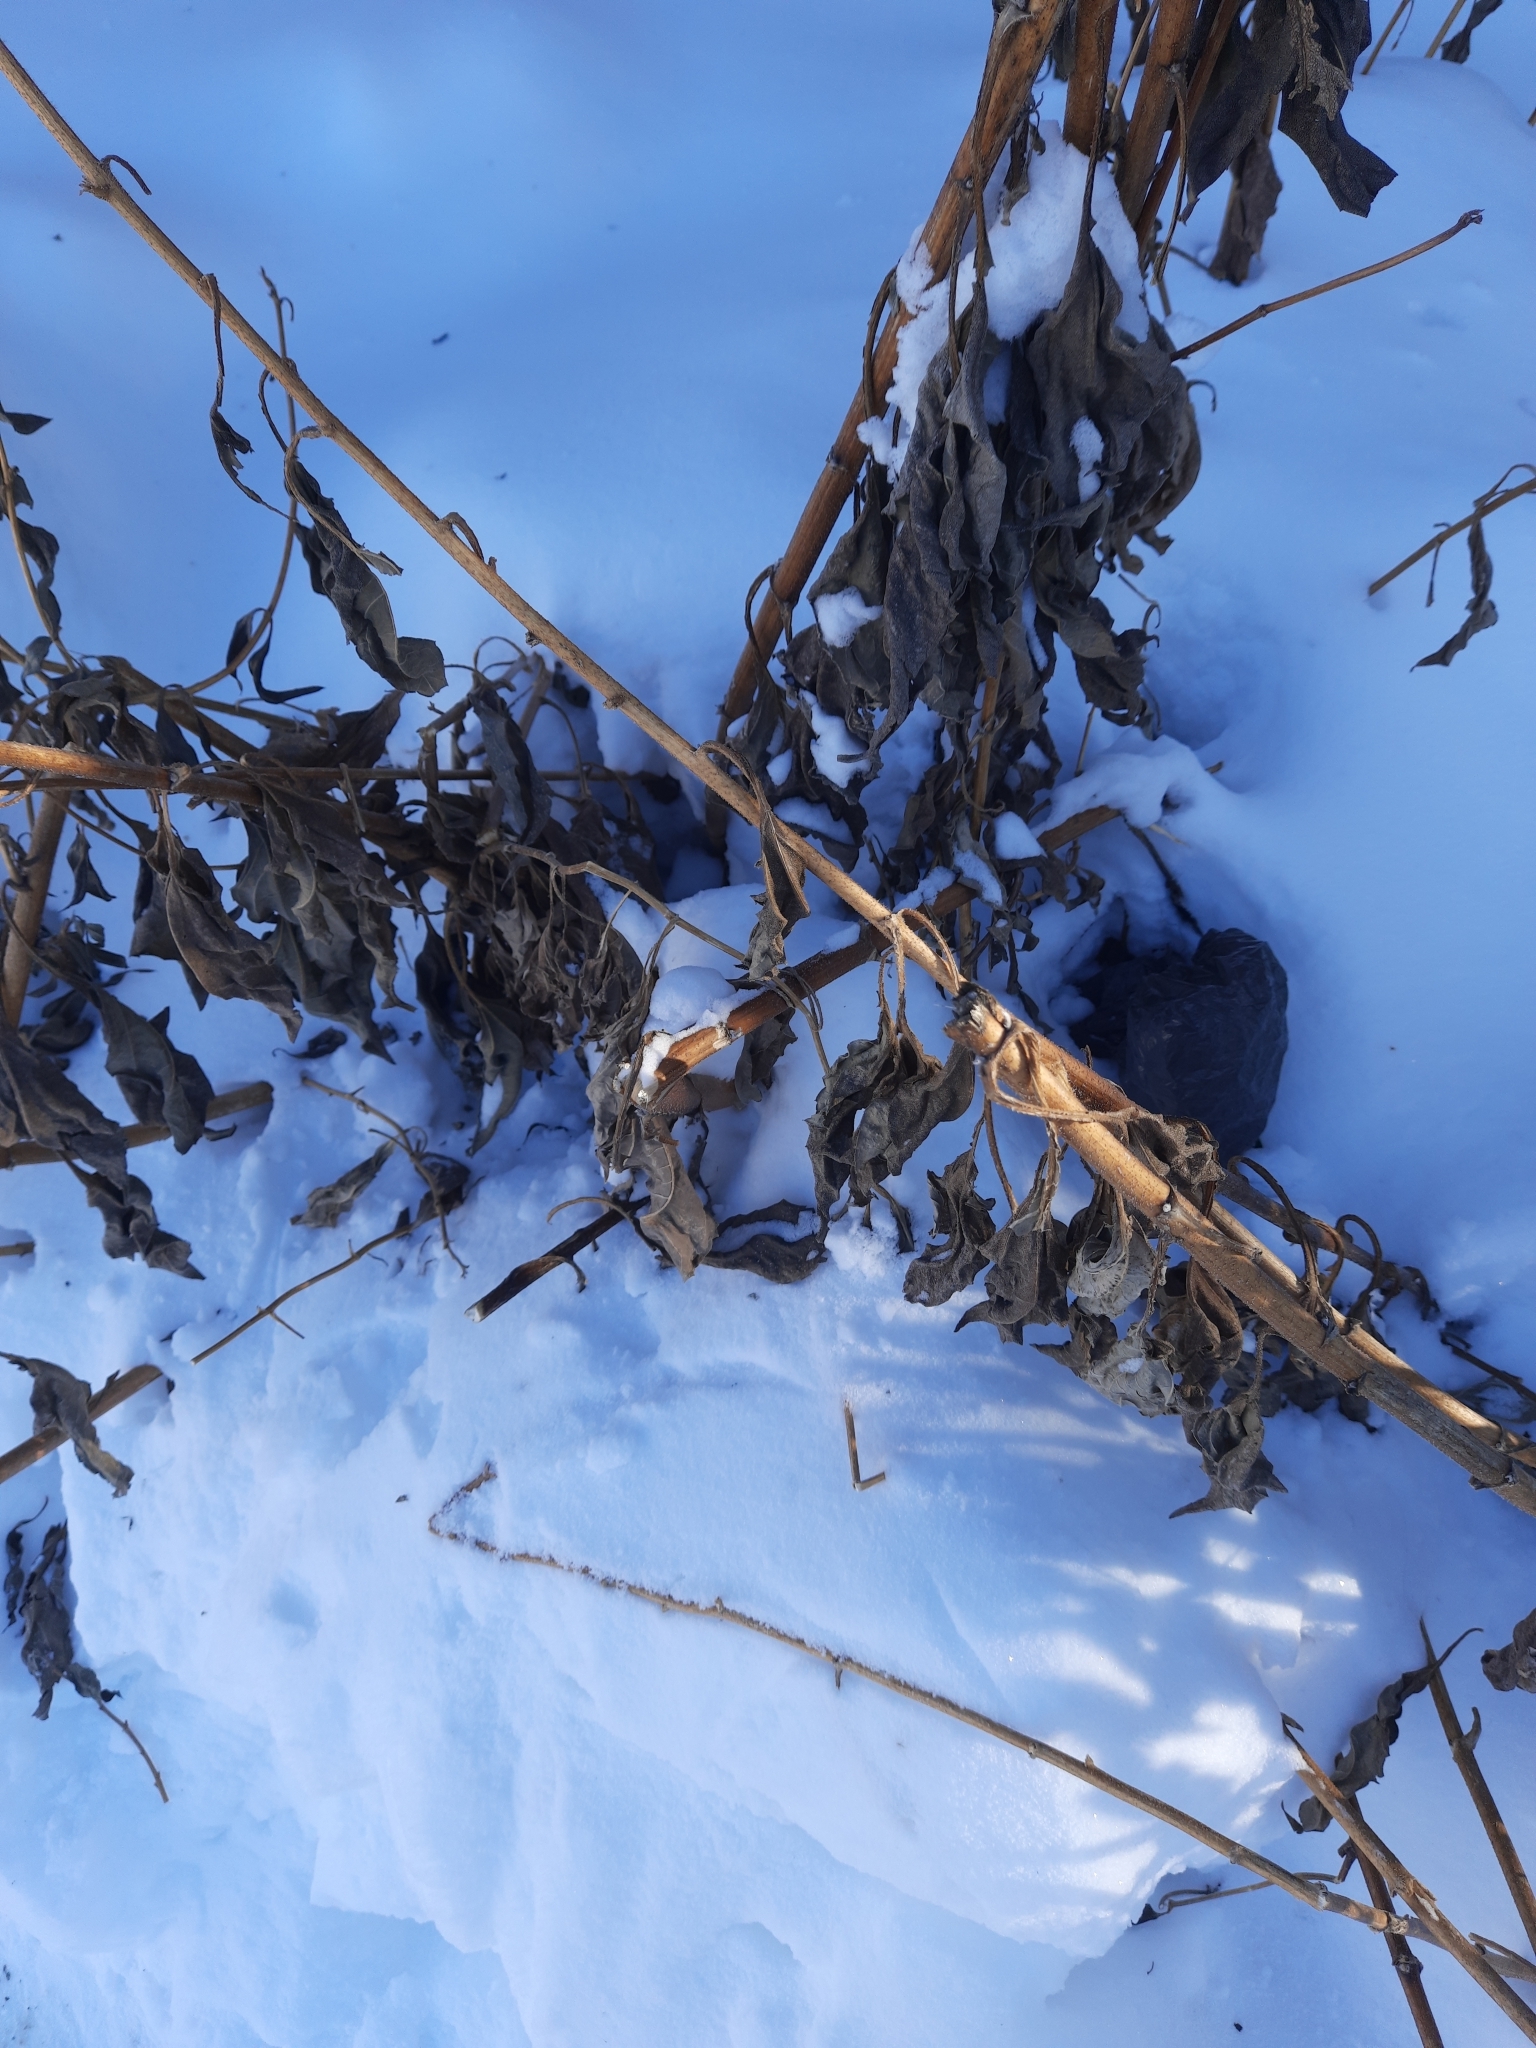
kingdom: Plantae
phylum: Tracheophyta
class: Magnoliopsida
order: Asterales
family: Asteraceae
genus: Helianthus
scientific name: Helianthus tuberosus
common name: Jerusalem artichoke
